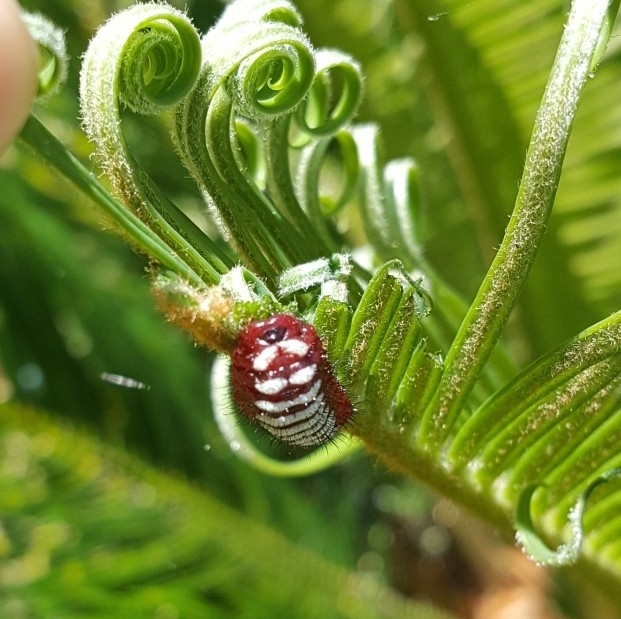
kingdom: Animalia
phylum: Arthropoda
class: Insecta
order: Lepidoptera
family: Lycaenidae
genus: Eumaeus
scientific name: Eumaeus childrenae
